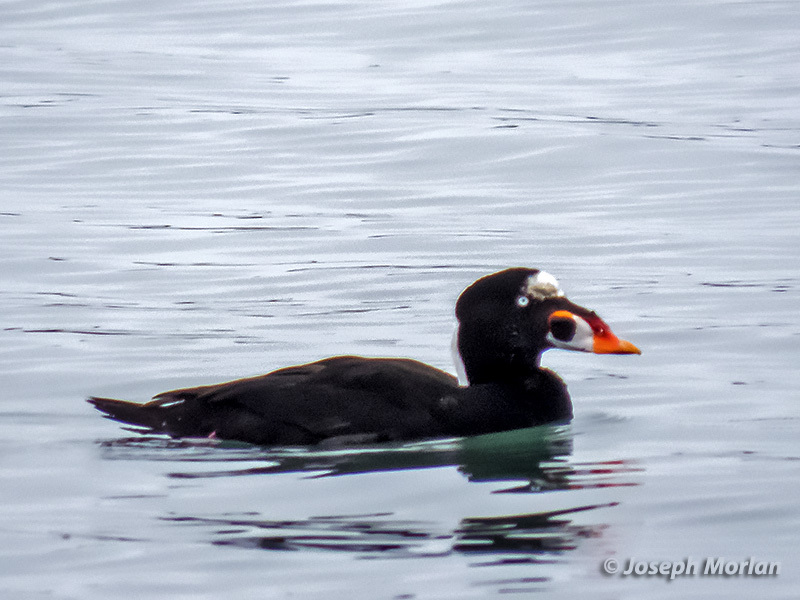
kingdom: Animalia
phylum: Chordata
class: Aves
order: Anseriformes
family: Anatidae
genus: Melanitta
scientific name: Melanitta perspicillata
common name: Surf scoter
